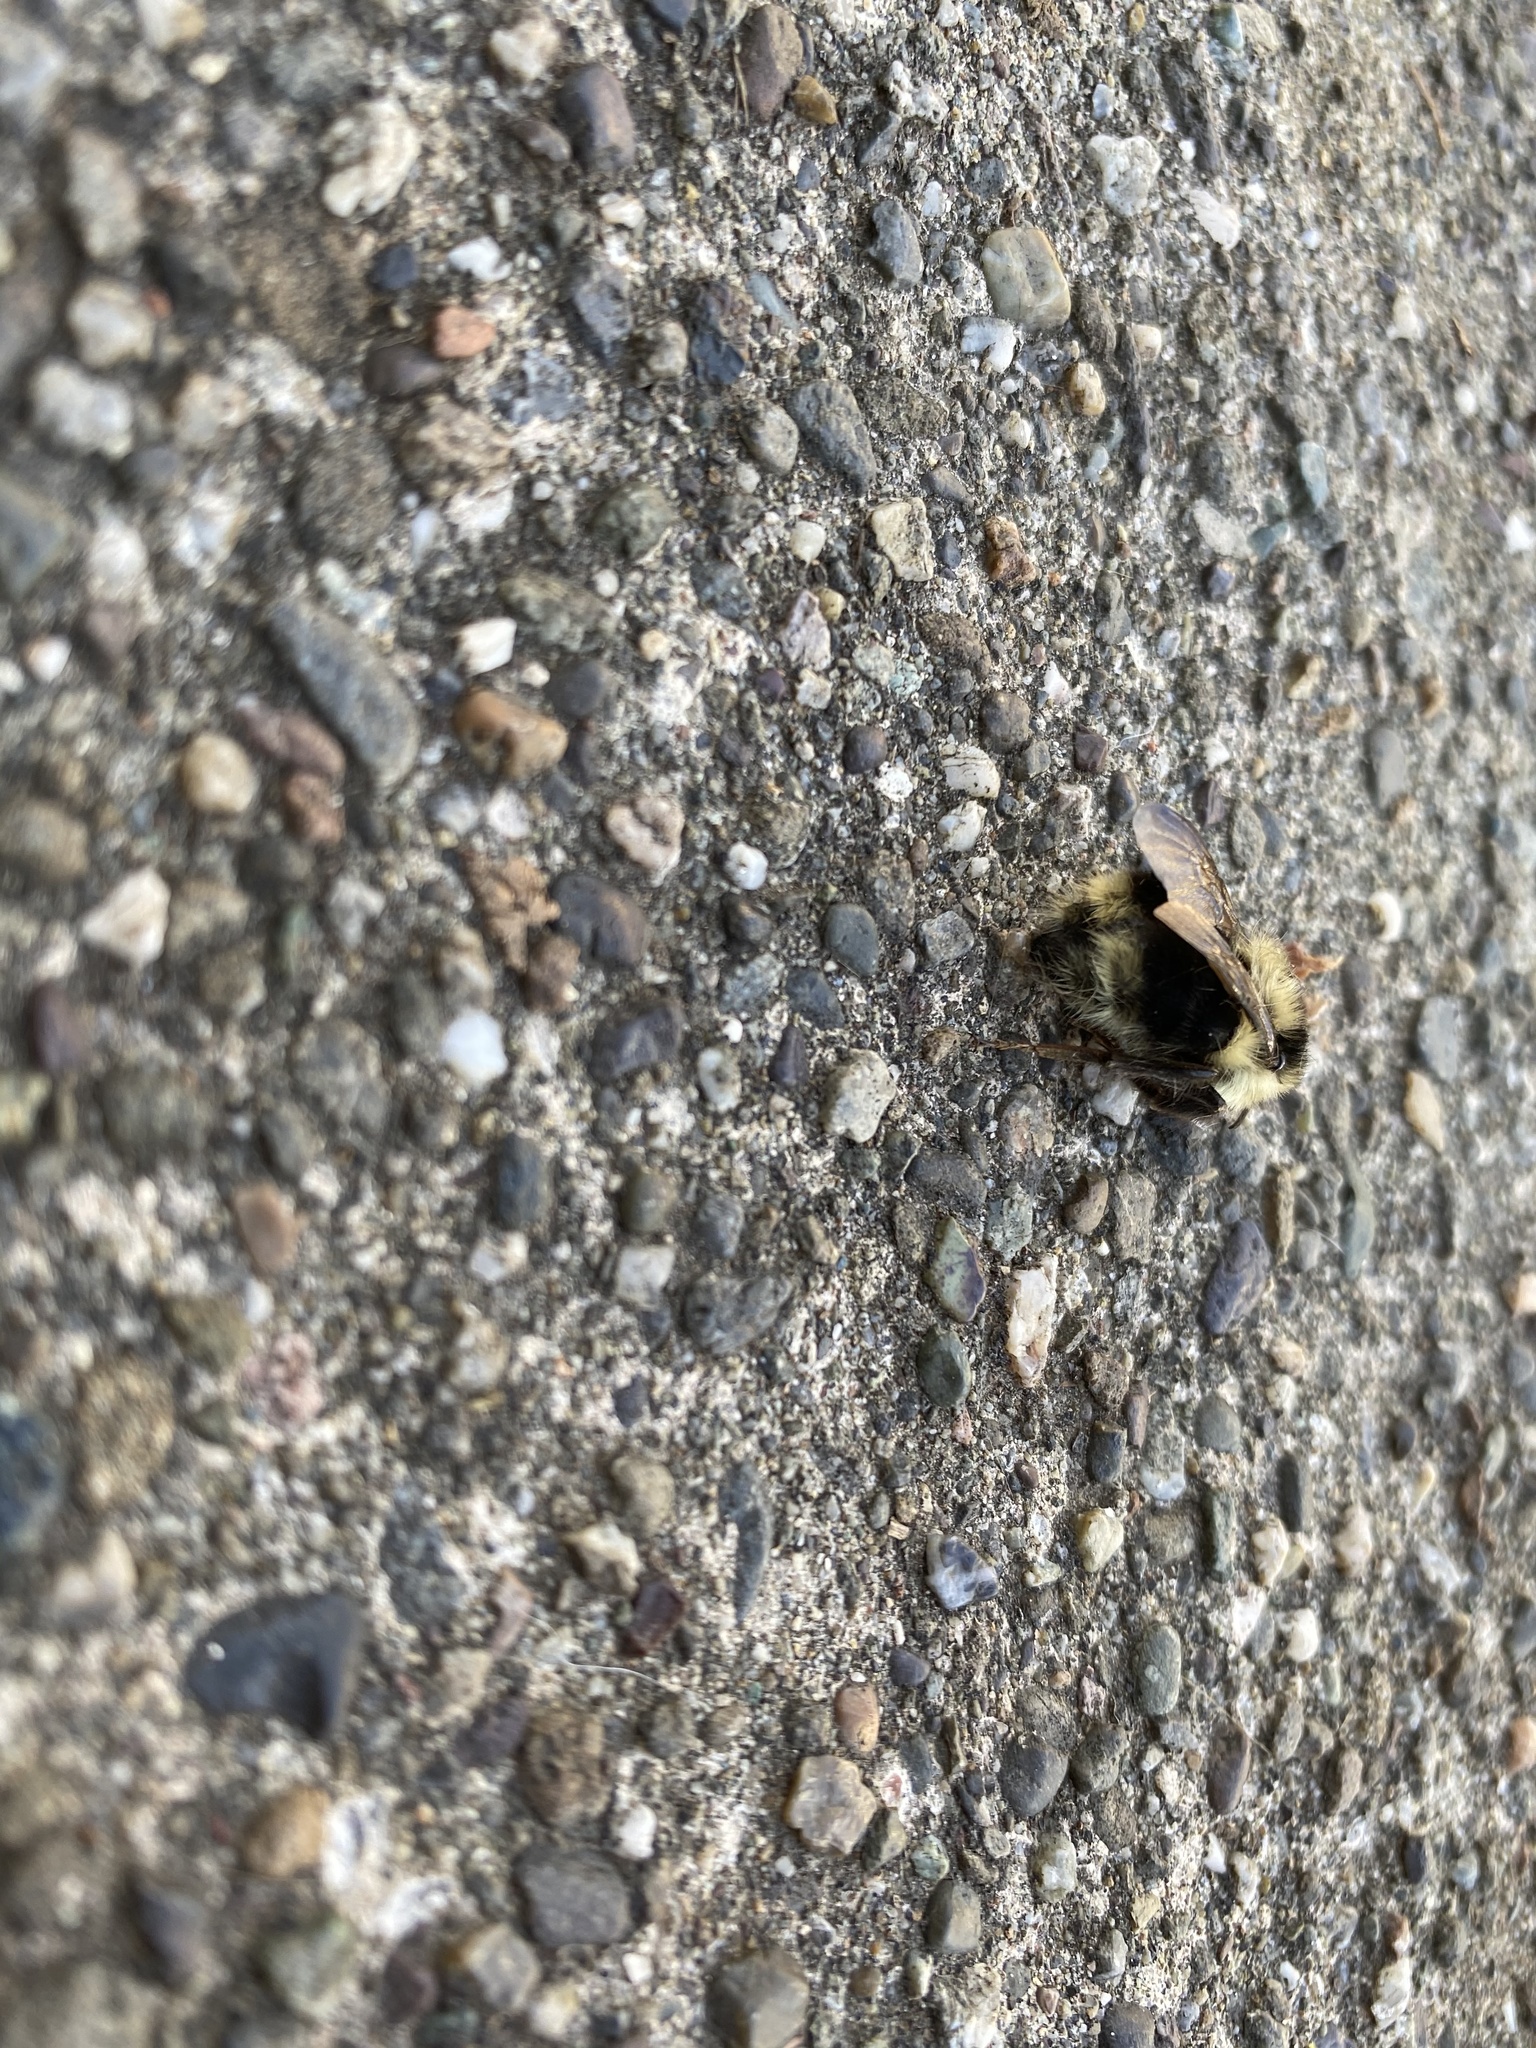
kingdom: Animalia
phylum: Arthropoda
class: Insecta
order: Hymenoptera
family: Apidae
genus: Bombus
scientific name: Bombus melanopygus
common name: Black tail bumble bee
